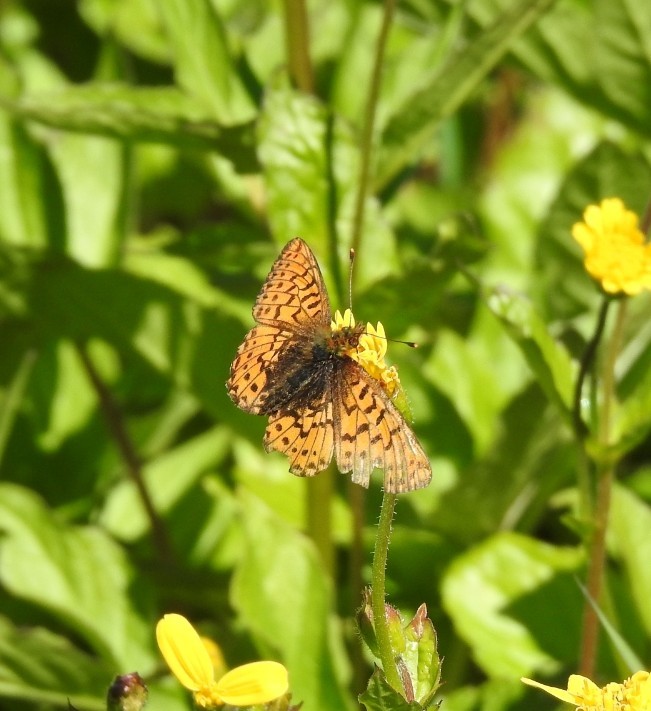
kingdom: Animalia
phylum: Arthropoda
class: Insecta
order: Lepidoptera
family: Nymphalidae
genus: Clossiana
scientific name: Clossiana chariclea
